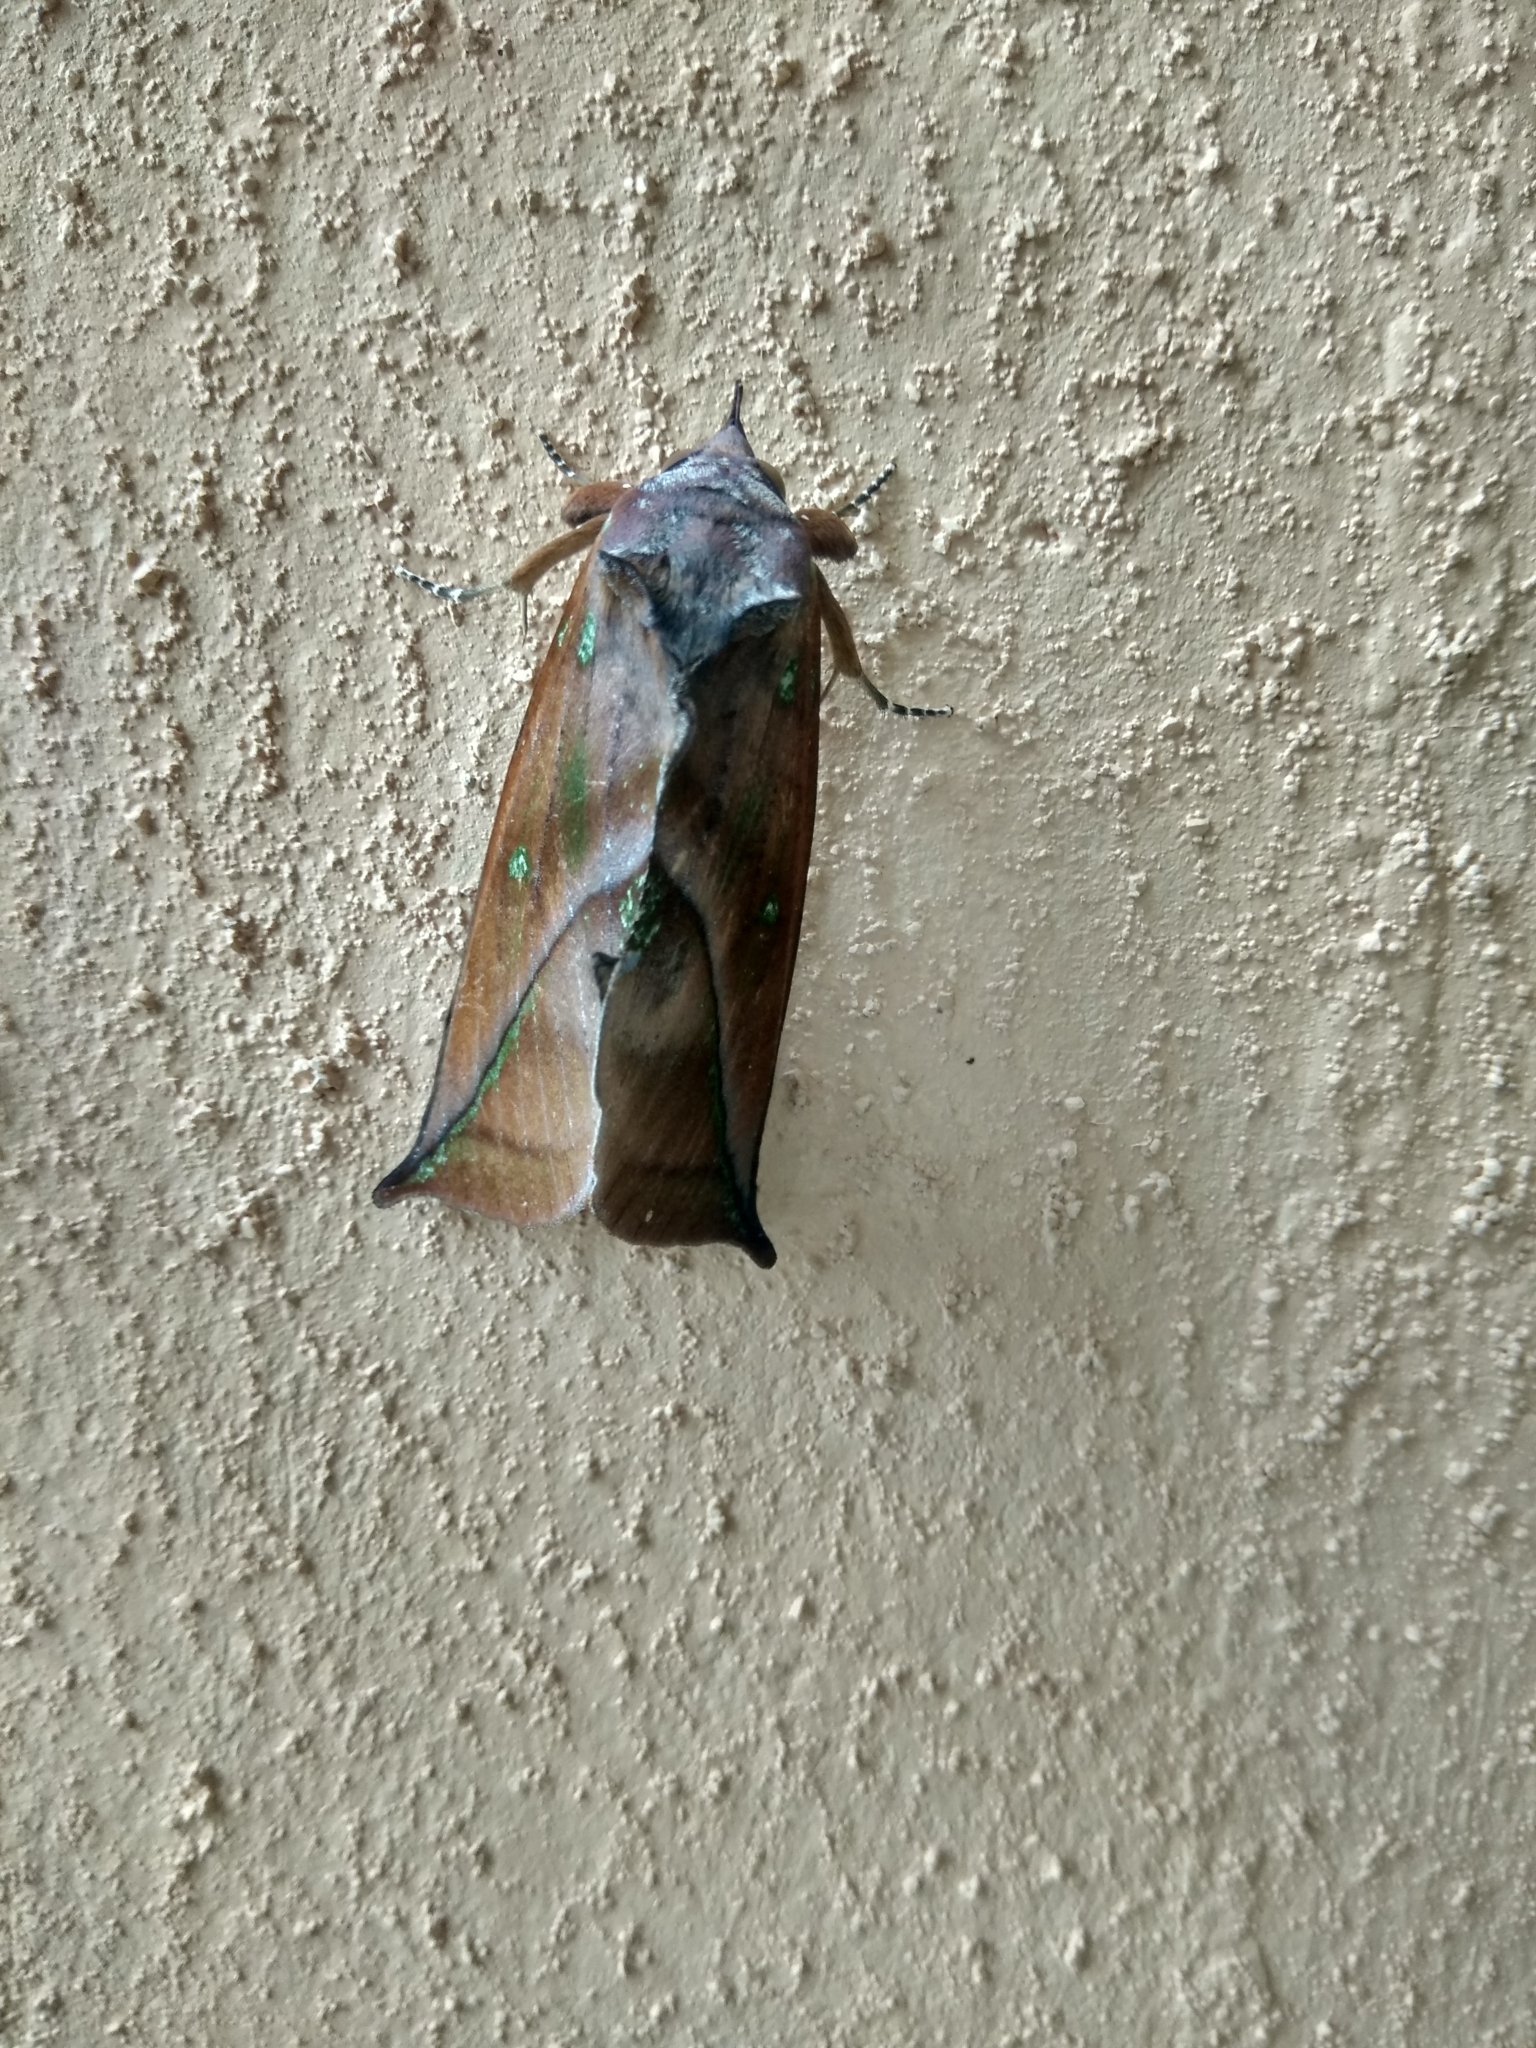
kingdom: Animalia
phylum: Arthropoda
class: Insecta
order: Lepidoptera
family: Erebidae
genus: Eudocima
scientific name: Eudocima aurantia
